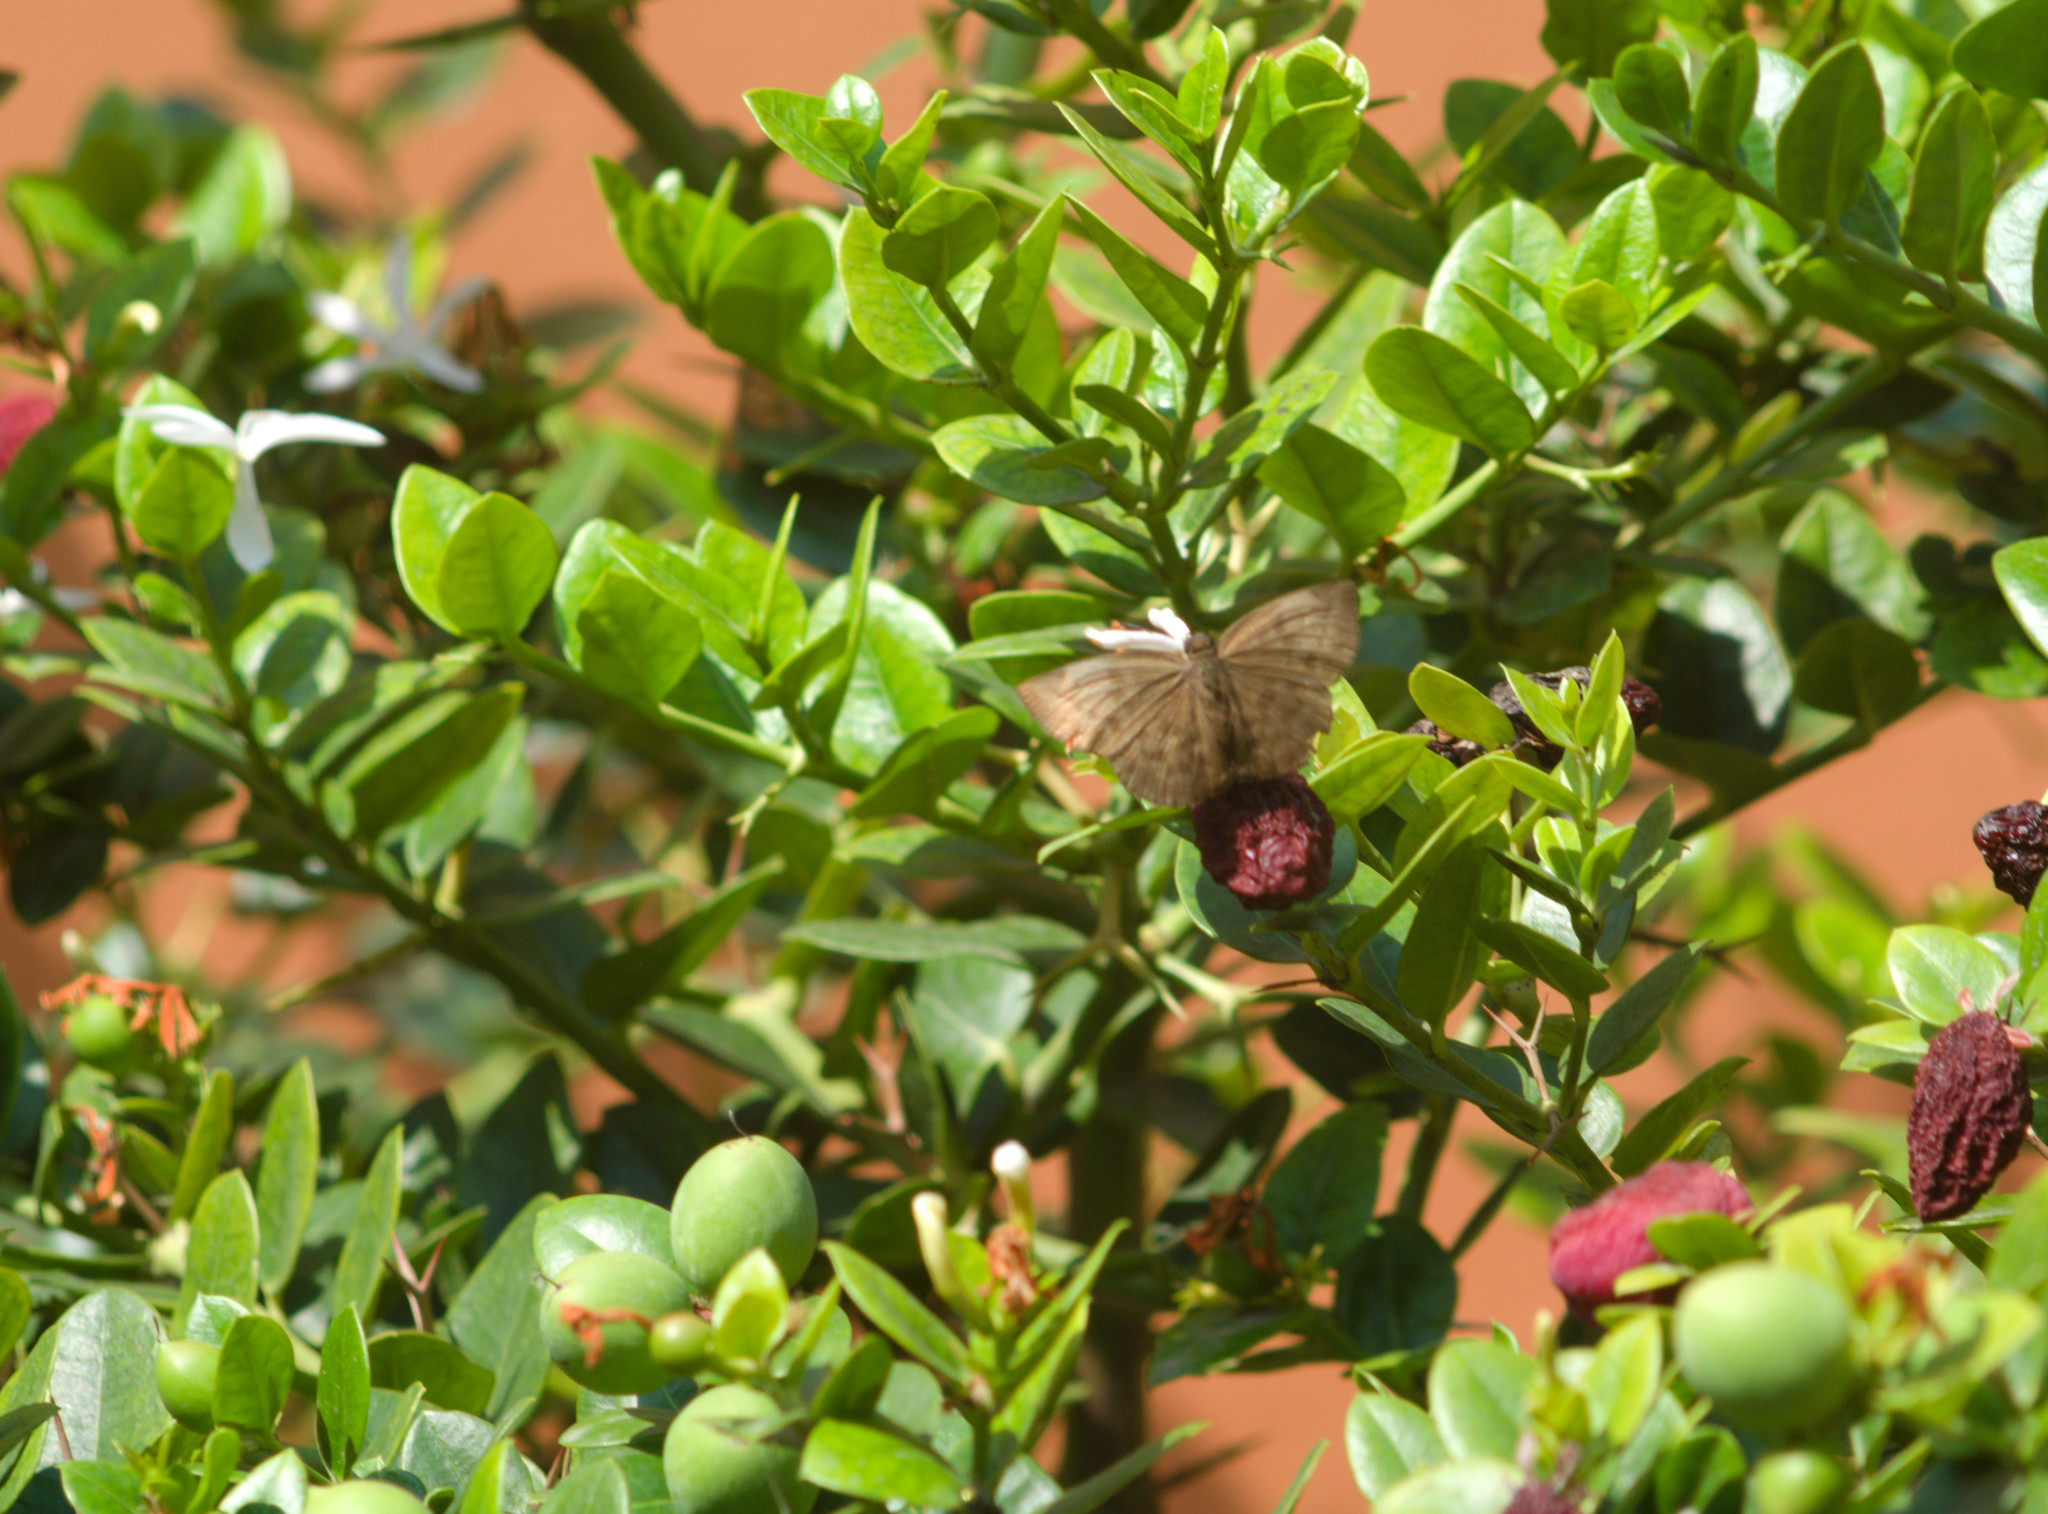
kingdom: Animalia
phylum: Arthropoda
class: Insecta
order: Lepidoptera
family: Hesperiidae
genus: Achlyodes
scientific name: Achlyodes pallida
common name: Pale sicklewing
